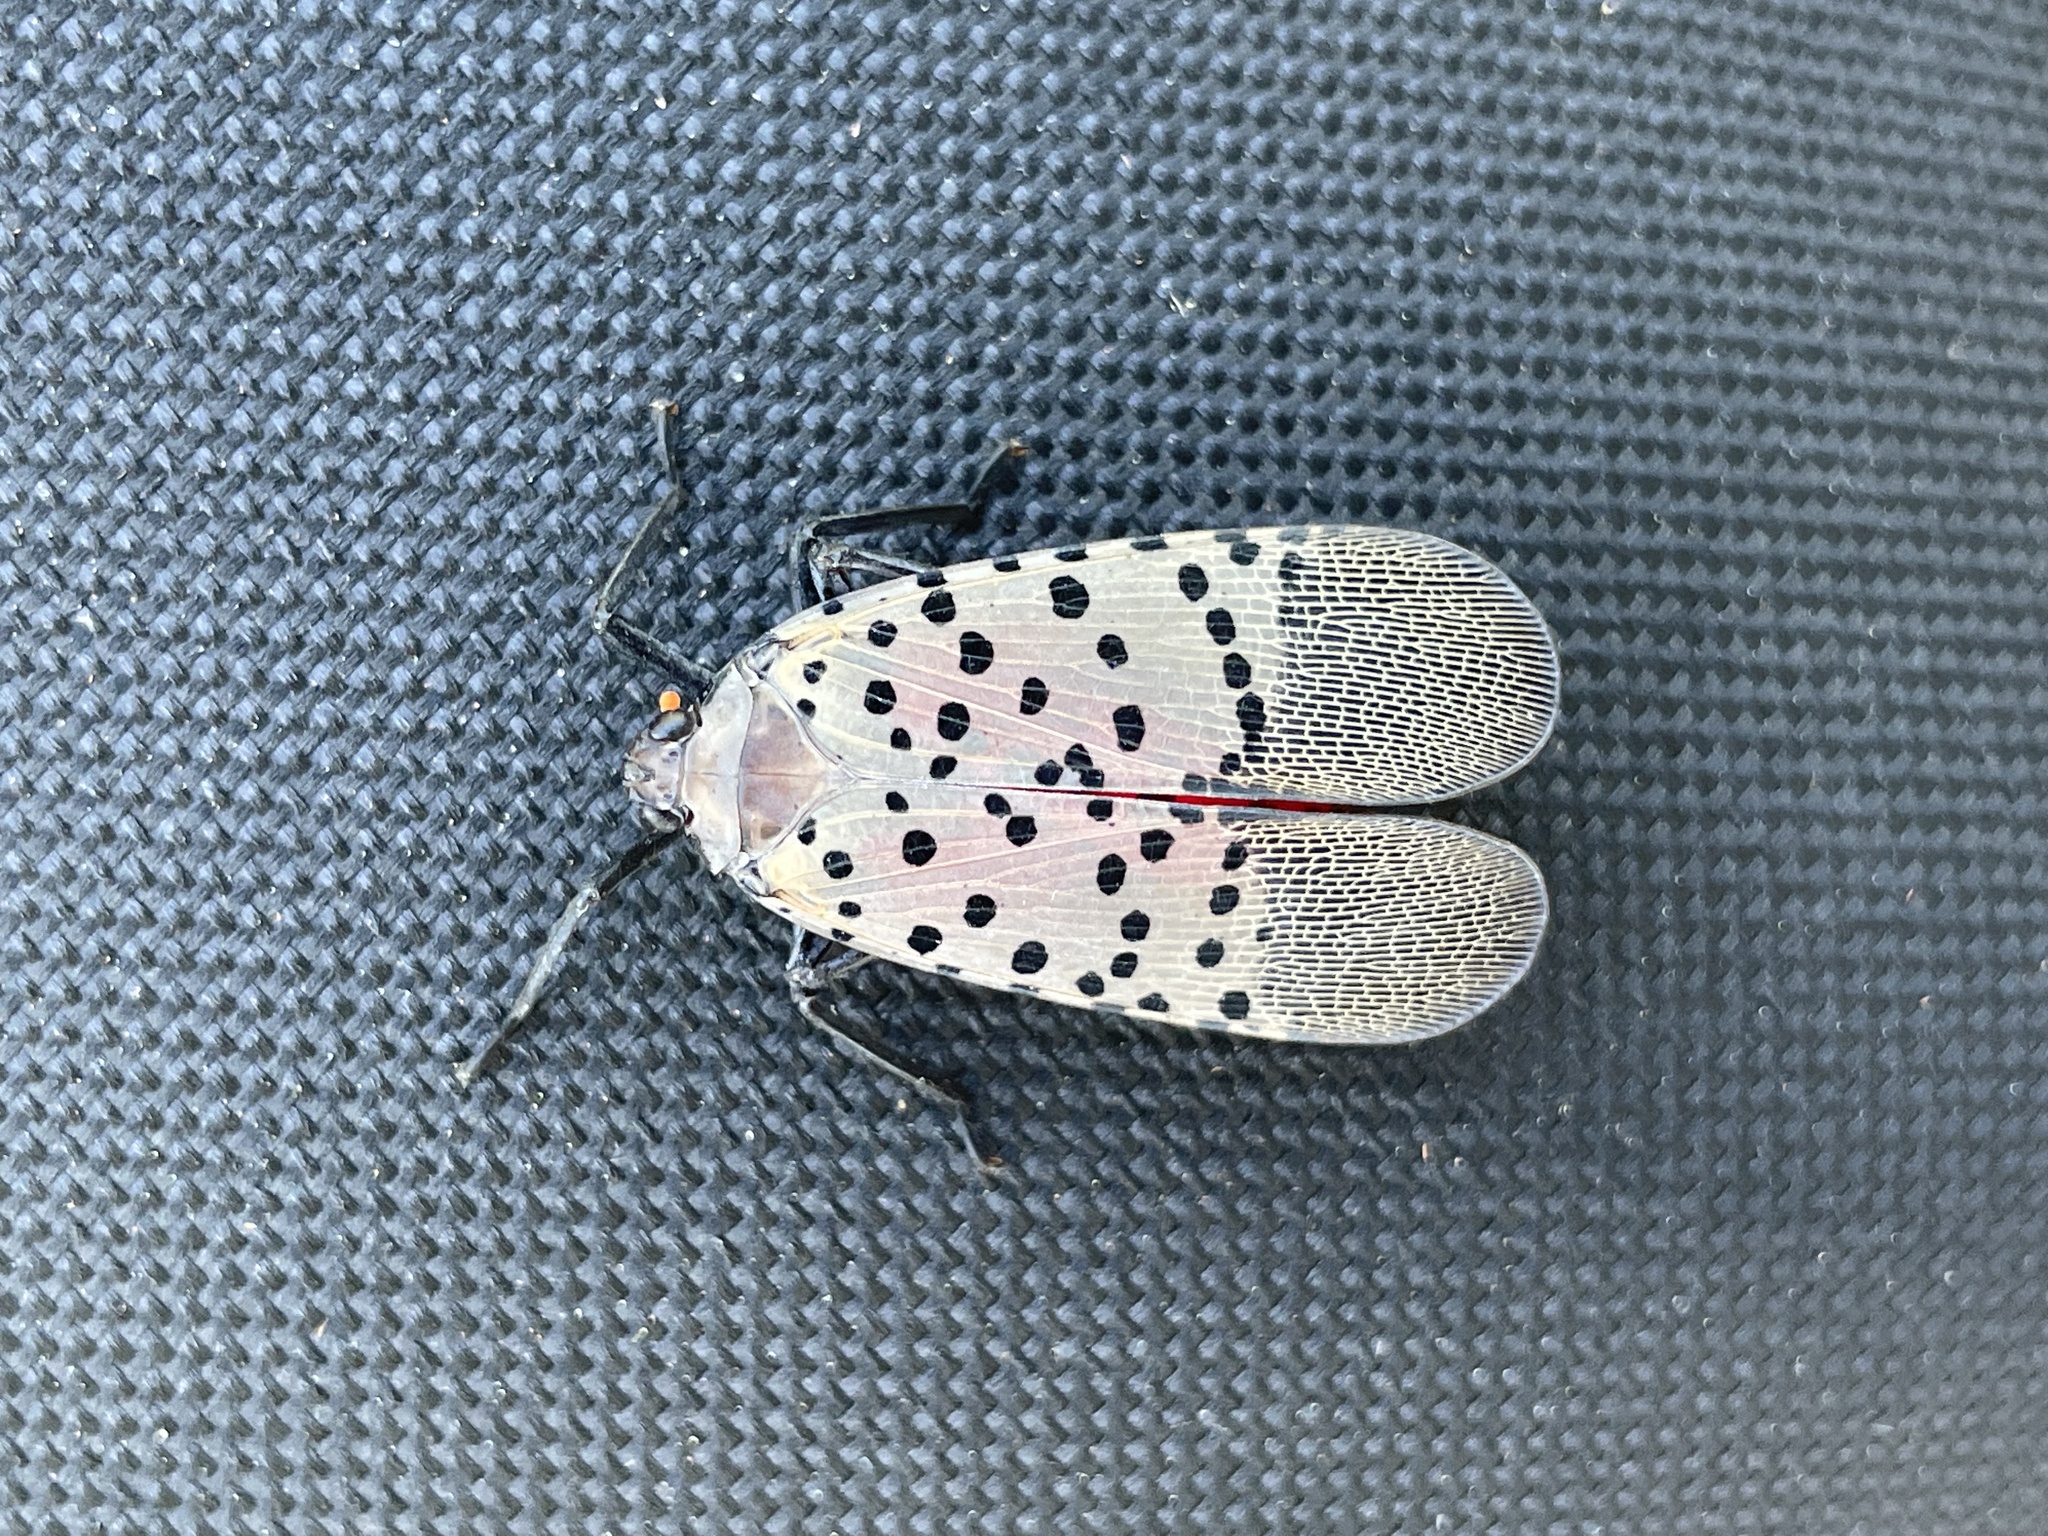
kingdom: Animalia
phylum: Arthropoda
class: Insecta
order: Hemiptera
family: Fulgoridae
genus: Lycorma
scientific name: Lycorma delicatula
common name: Spotted lanternfly
